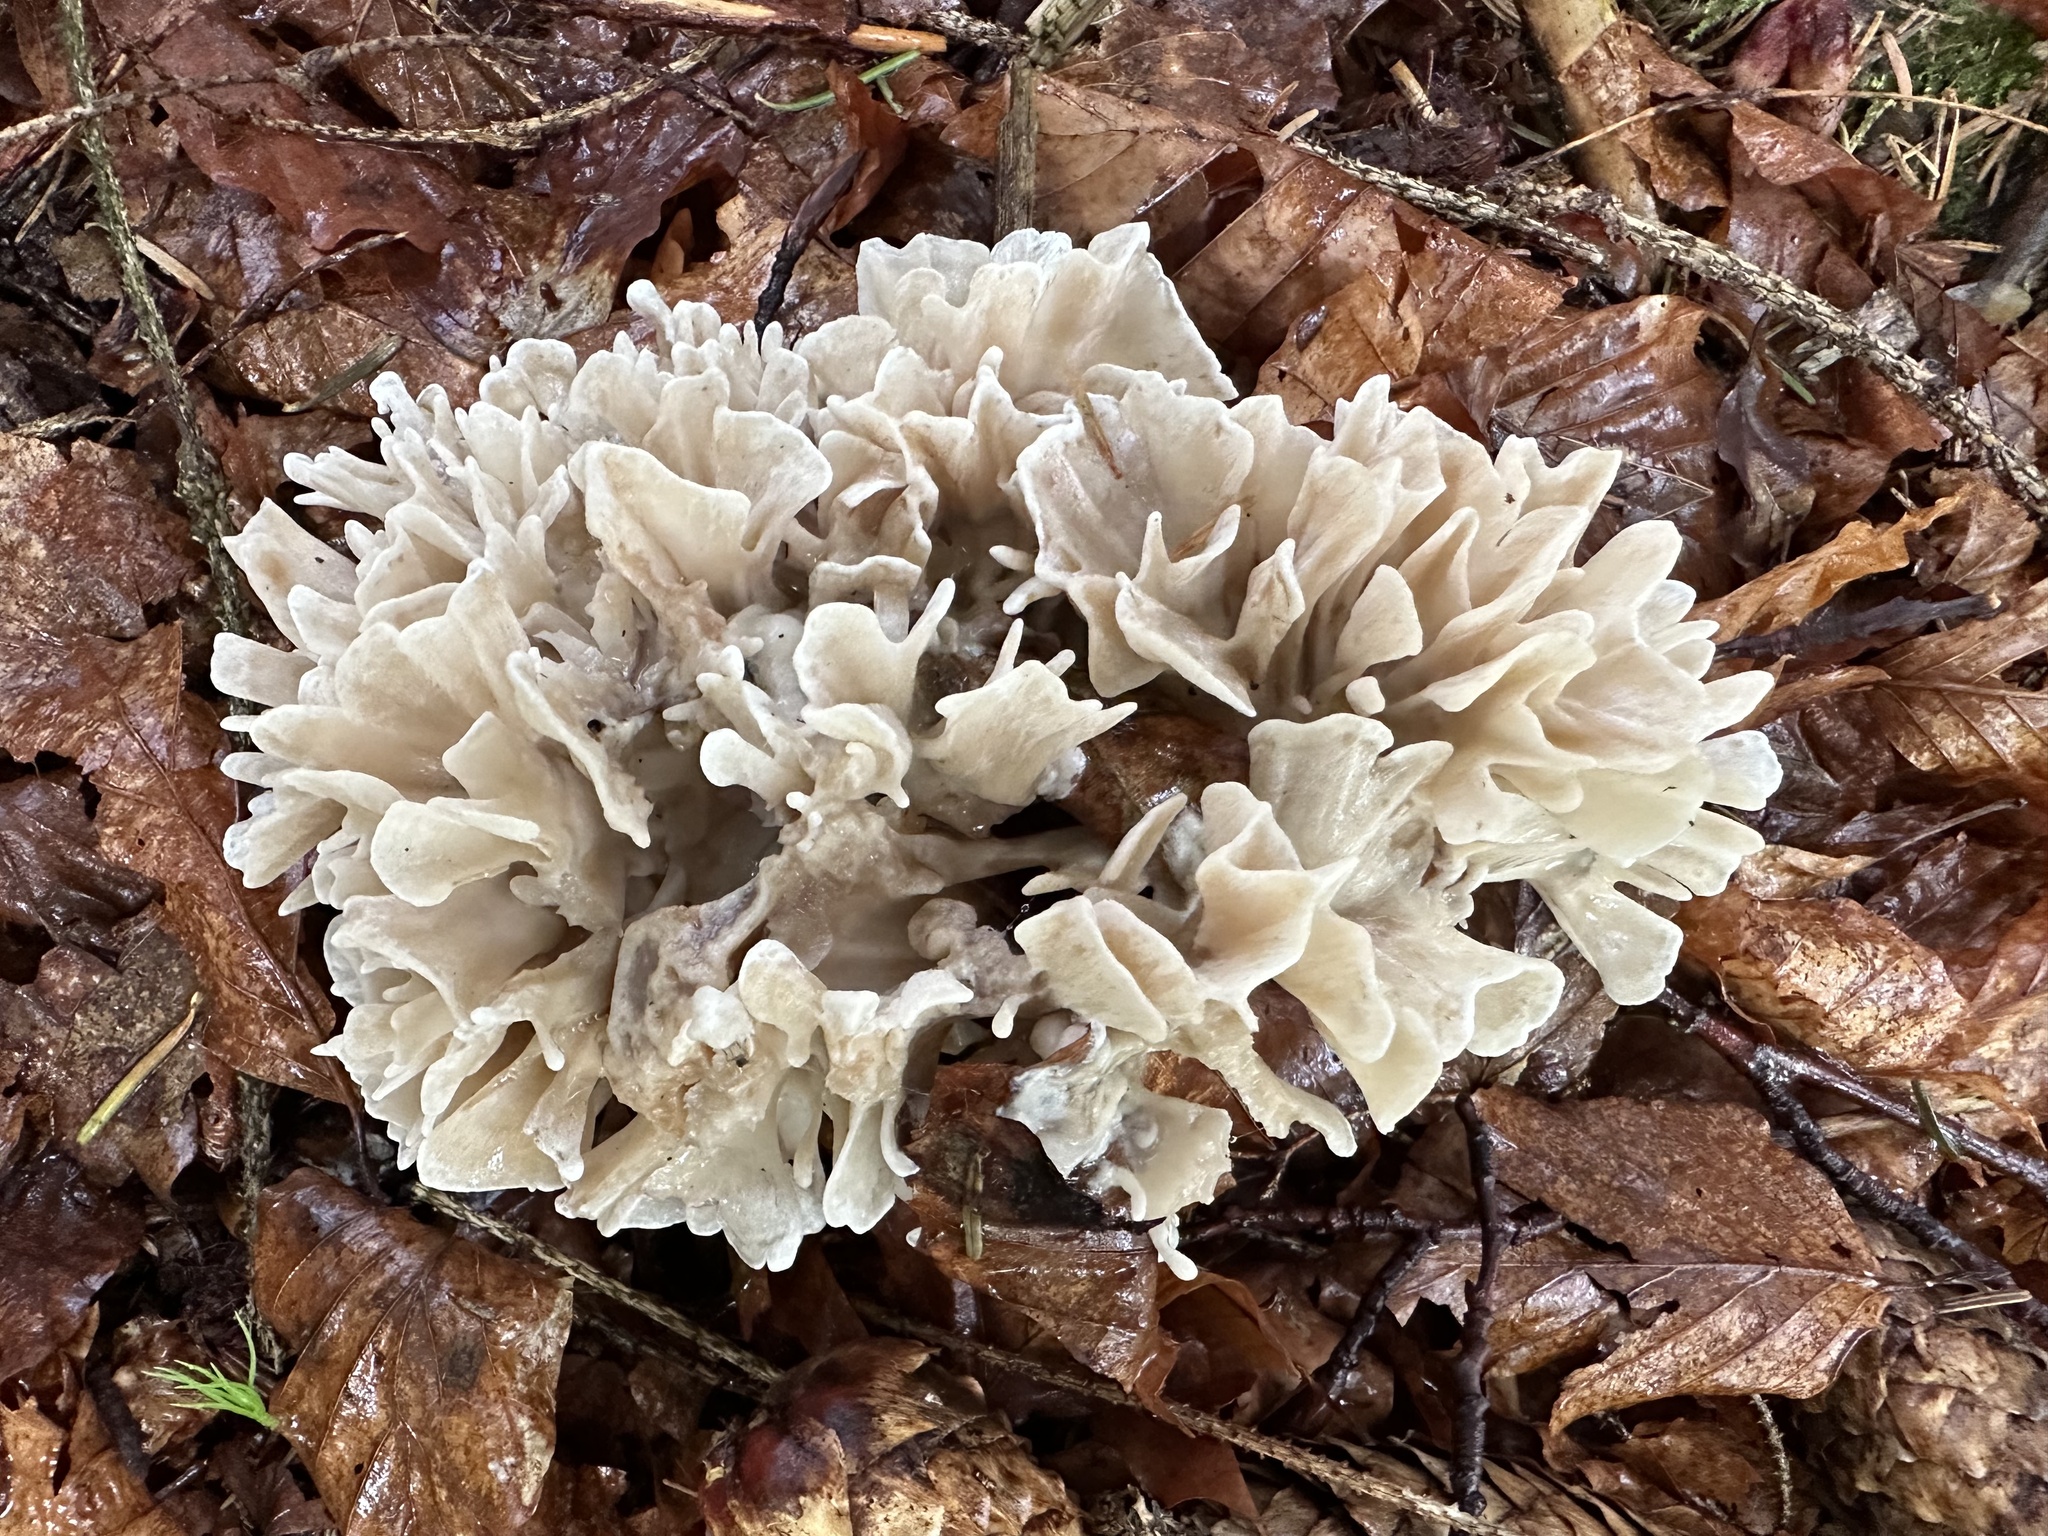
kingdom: Fungi
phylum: Basidiomycota
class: Agaricomycetes
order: Polyporales
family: Sparassidaceae
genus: Sparassis
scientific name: Sparassis brevipes
